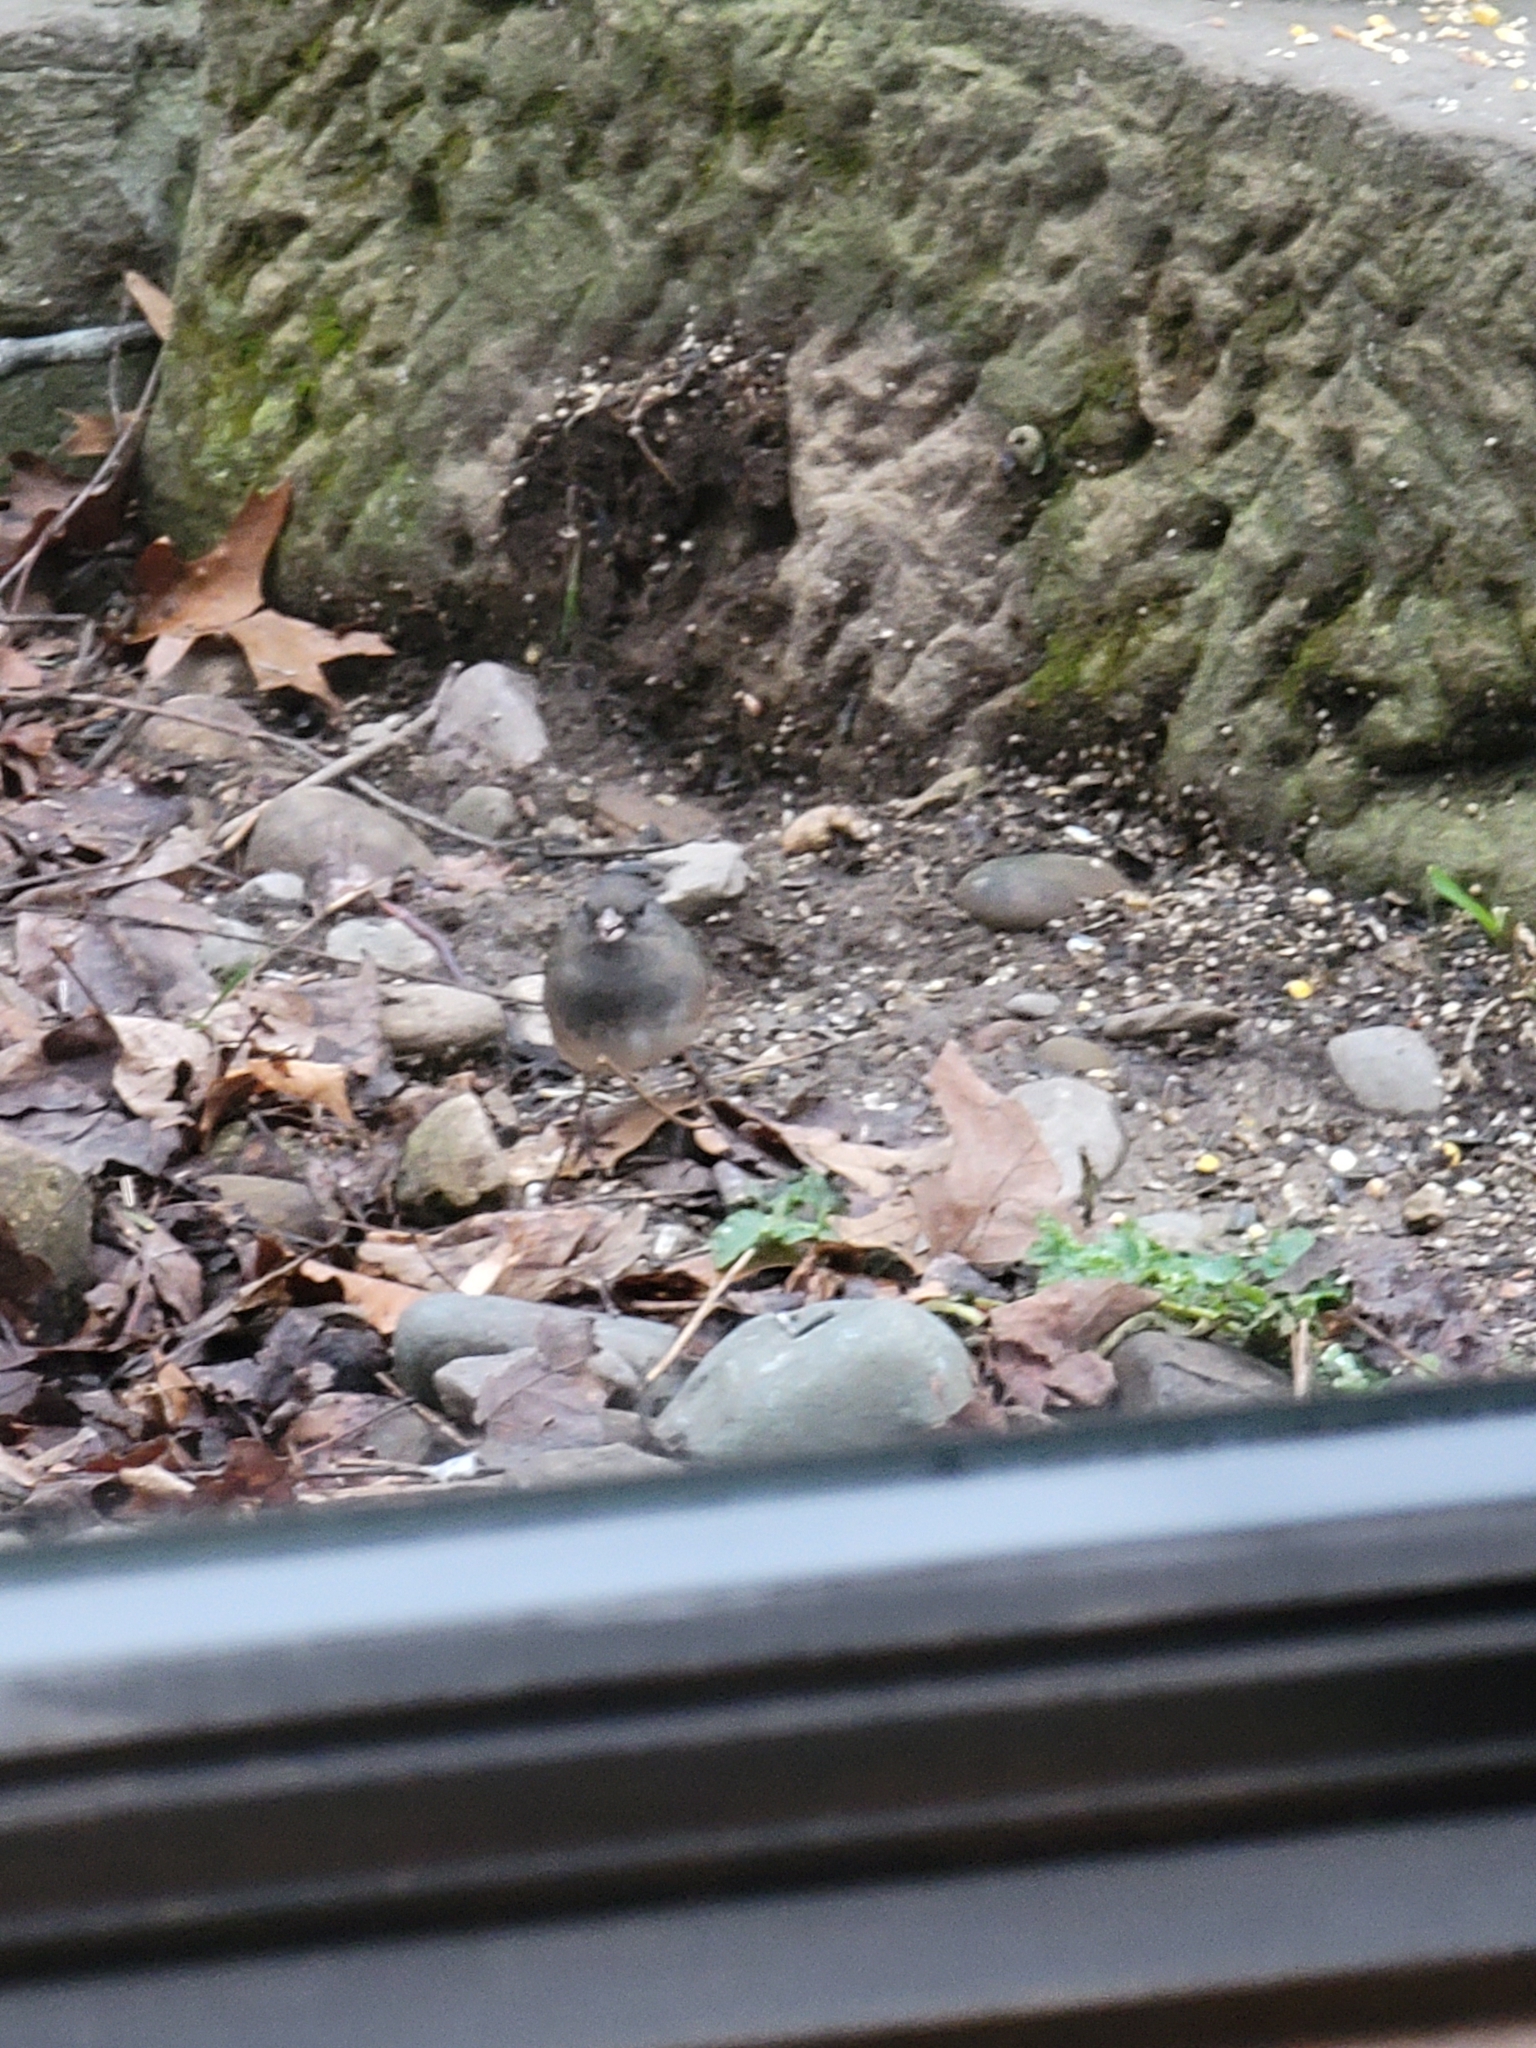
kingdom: Animalia
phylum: Chordata
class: Aves
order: Passeriformes
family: Passerellidae
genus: Junco
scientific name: Junco hyemalis
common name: Dark-eyed junco
